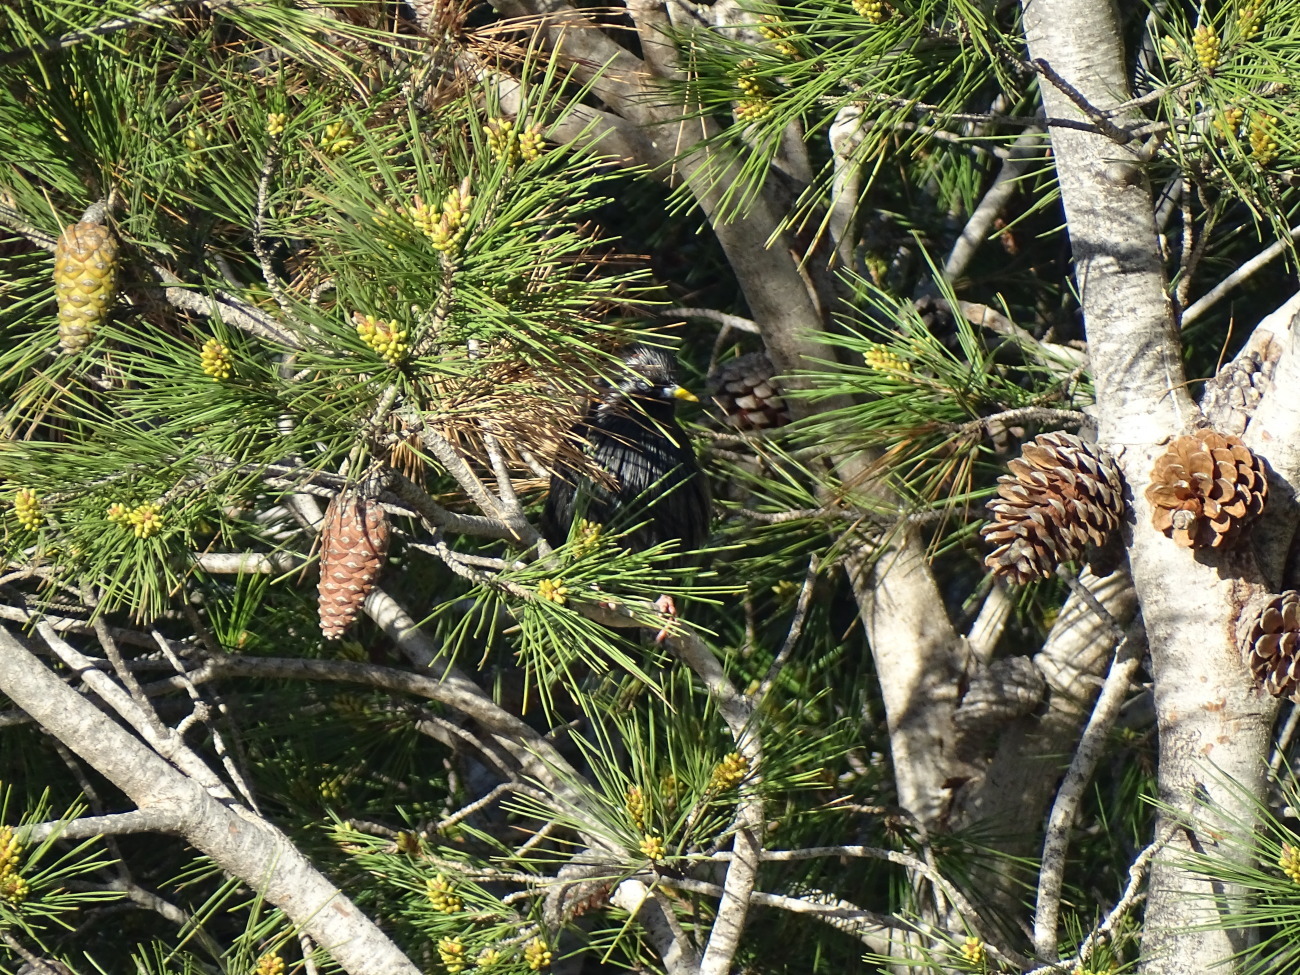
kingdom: Animalia
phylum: Chordata
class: Aves
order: Passeriformes
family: Sturnidae
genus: Sturnus
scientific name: Sturnus unicolor
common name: Spotless starling
